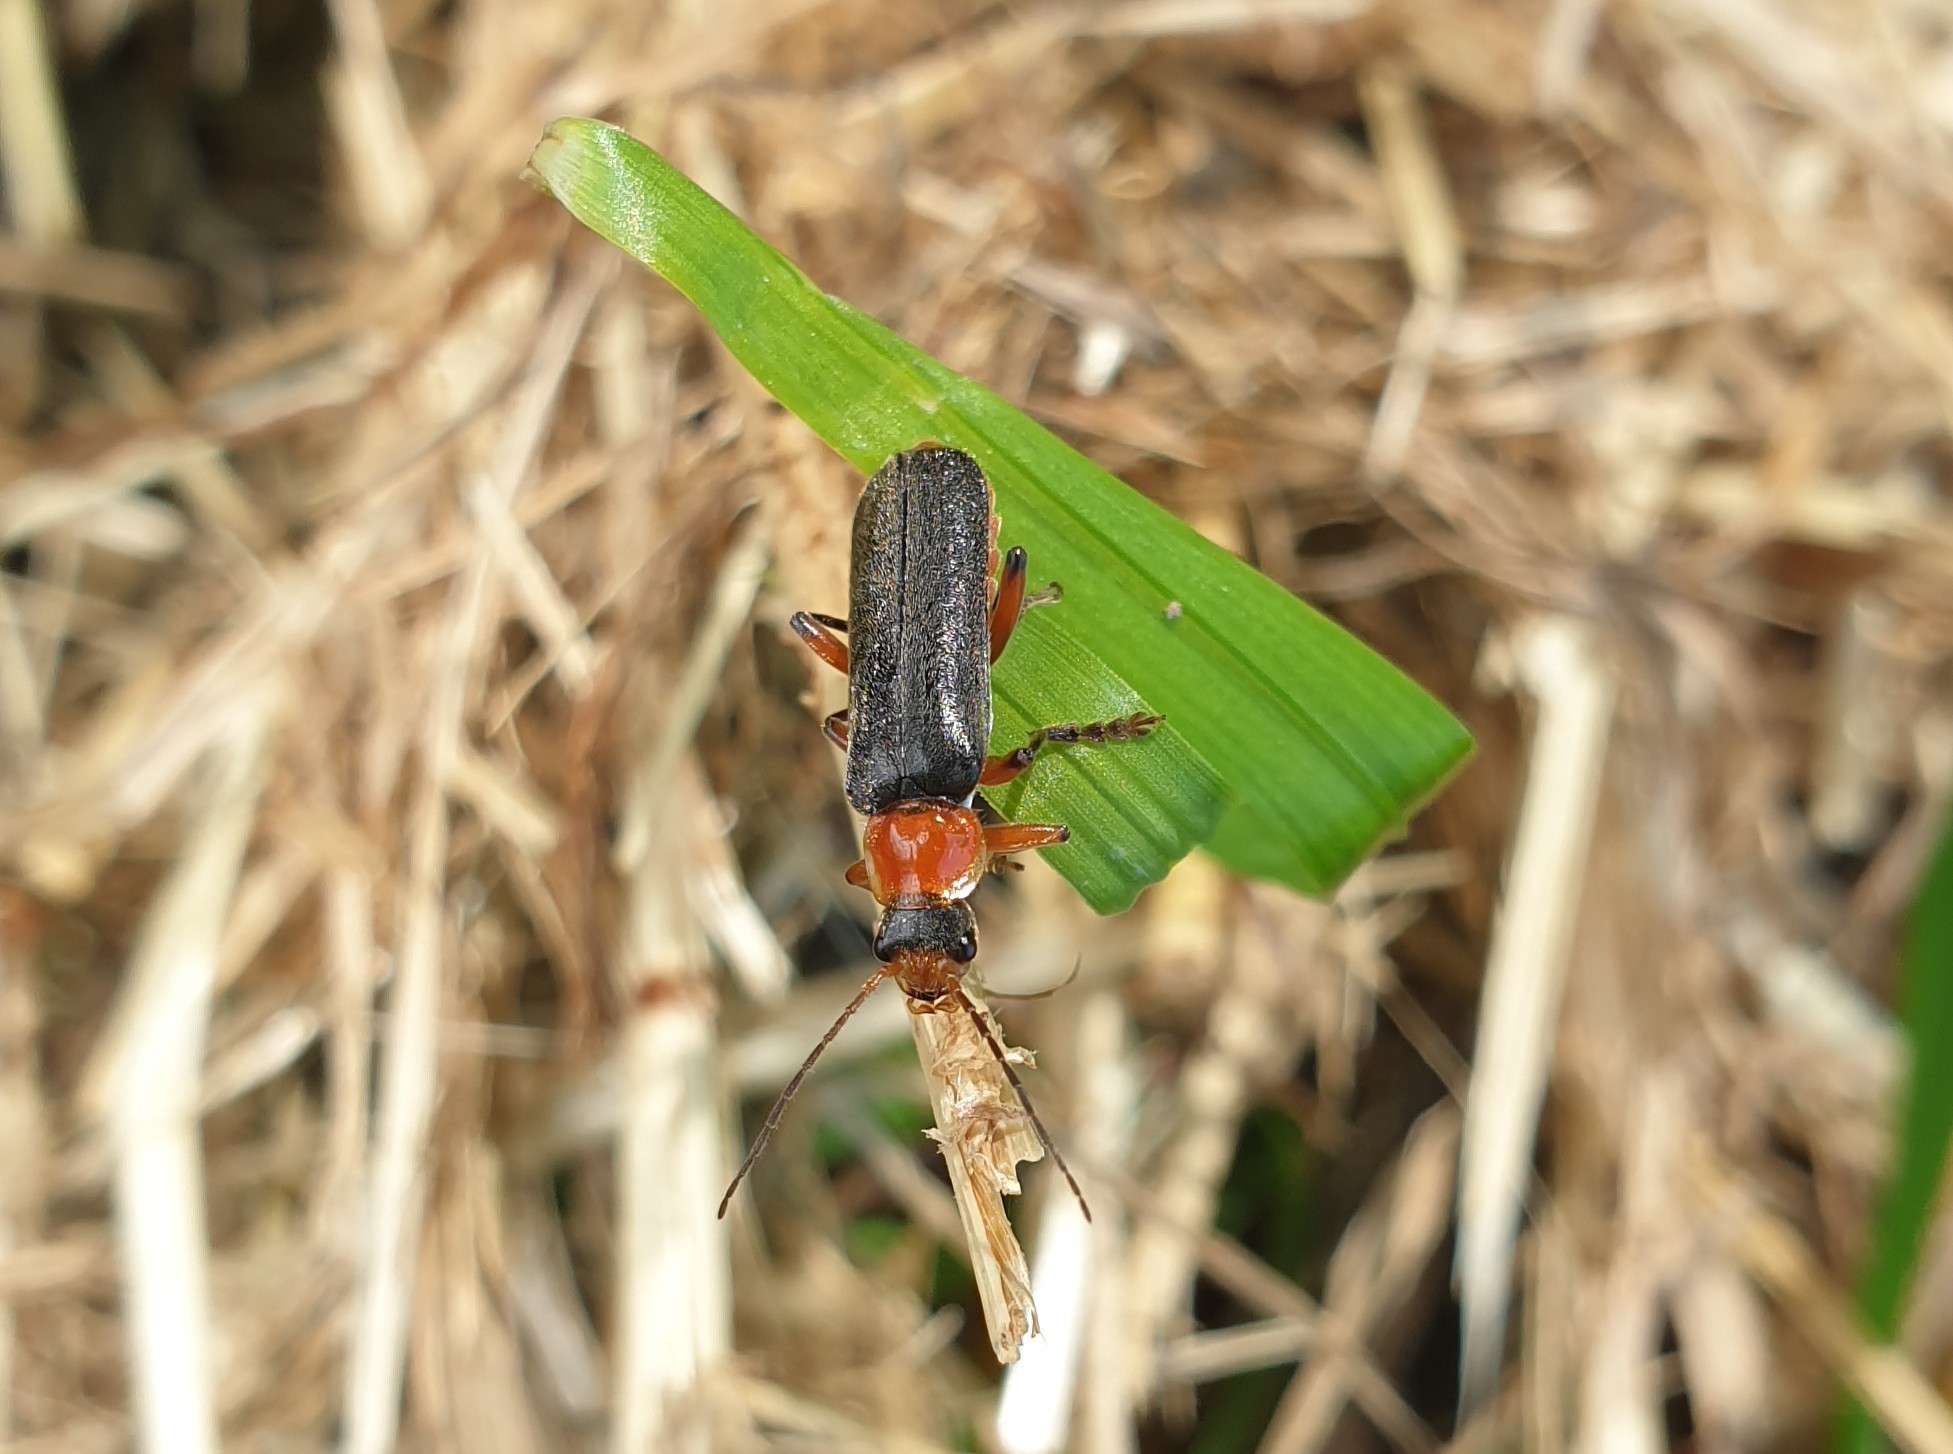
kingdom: Animalia
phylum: Arthropoda
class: Insecta
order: Coleoptera
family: Cantharidae
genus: Cantharis
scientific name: Cantharis pellucida
